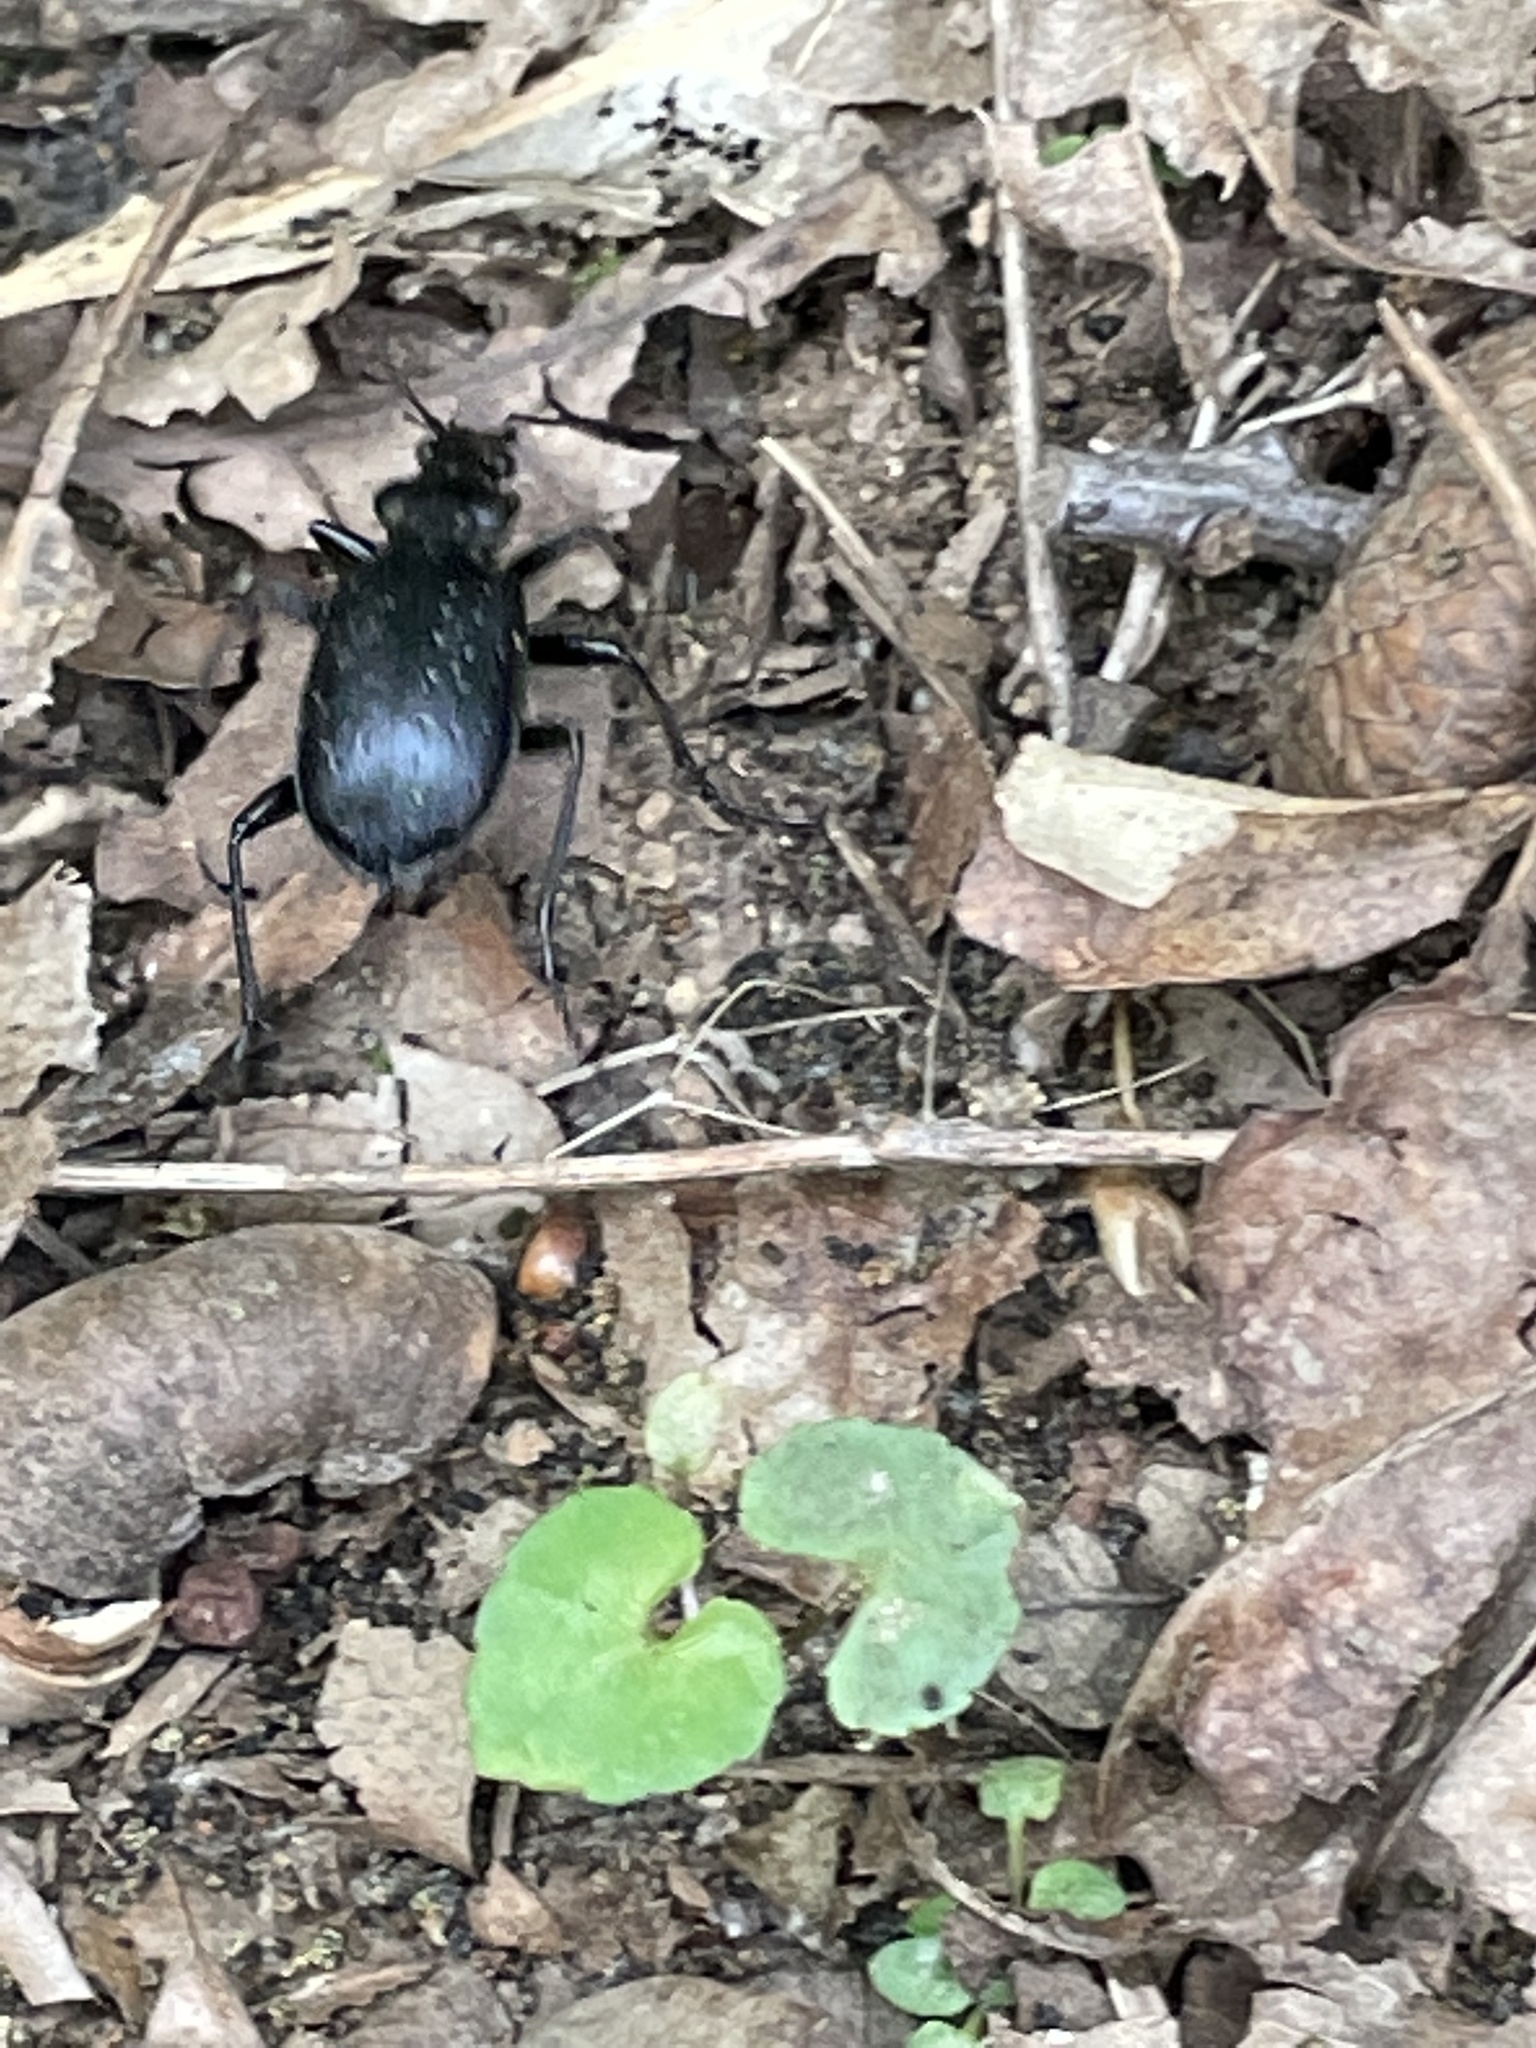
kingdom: Animalia
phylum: Arthropoda
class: Insecta
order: Coleoptera
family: Carabidae
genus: Calosoma
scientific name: Calosoma frigidum
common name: Cold-country caterpillar hunter
